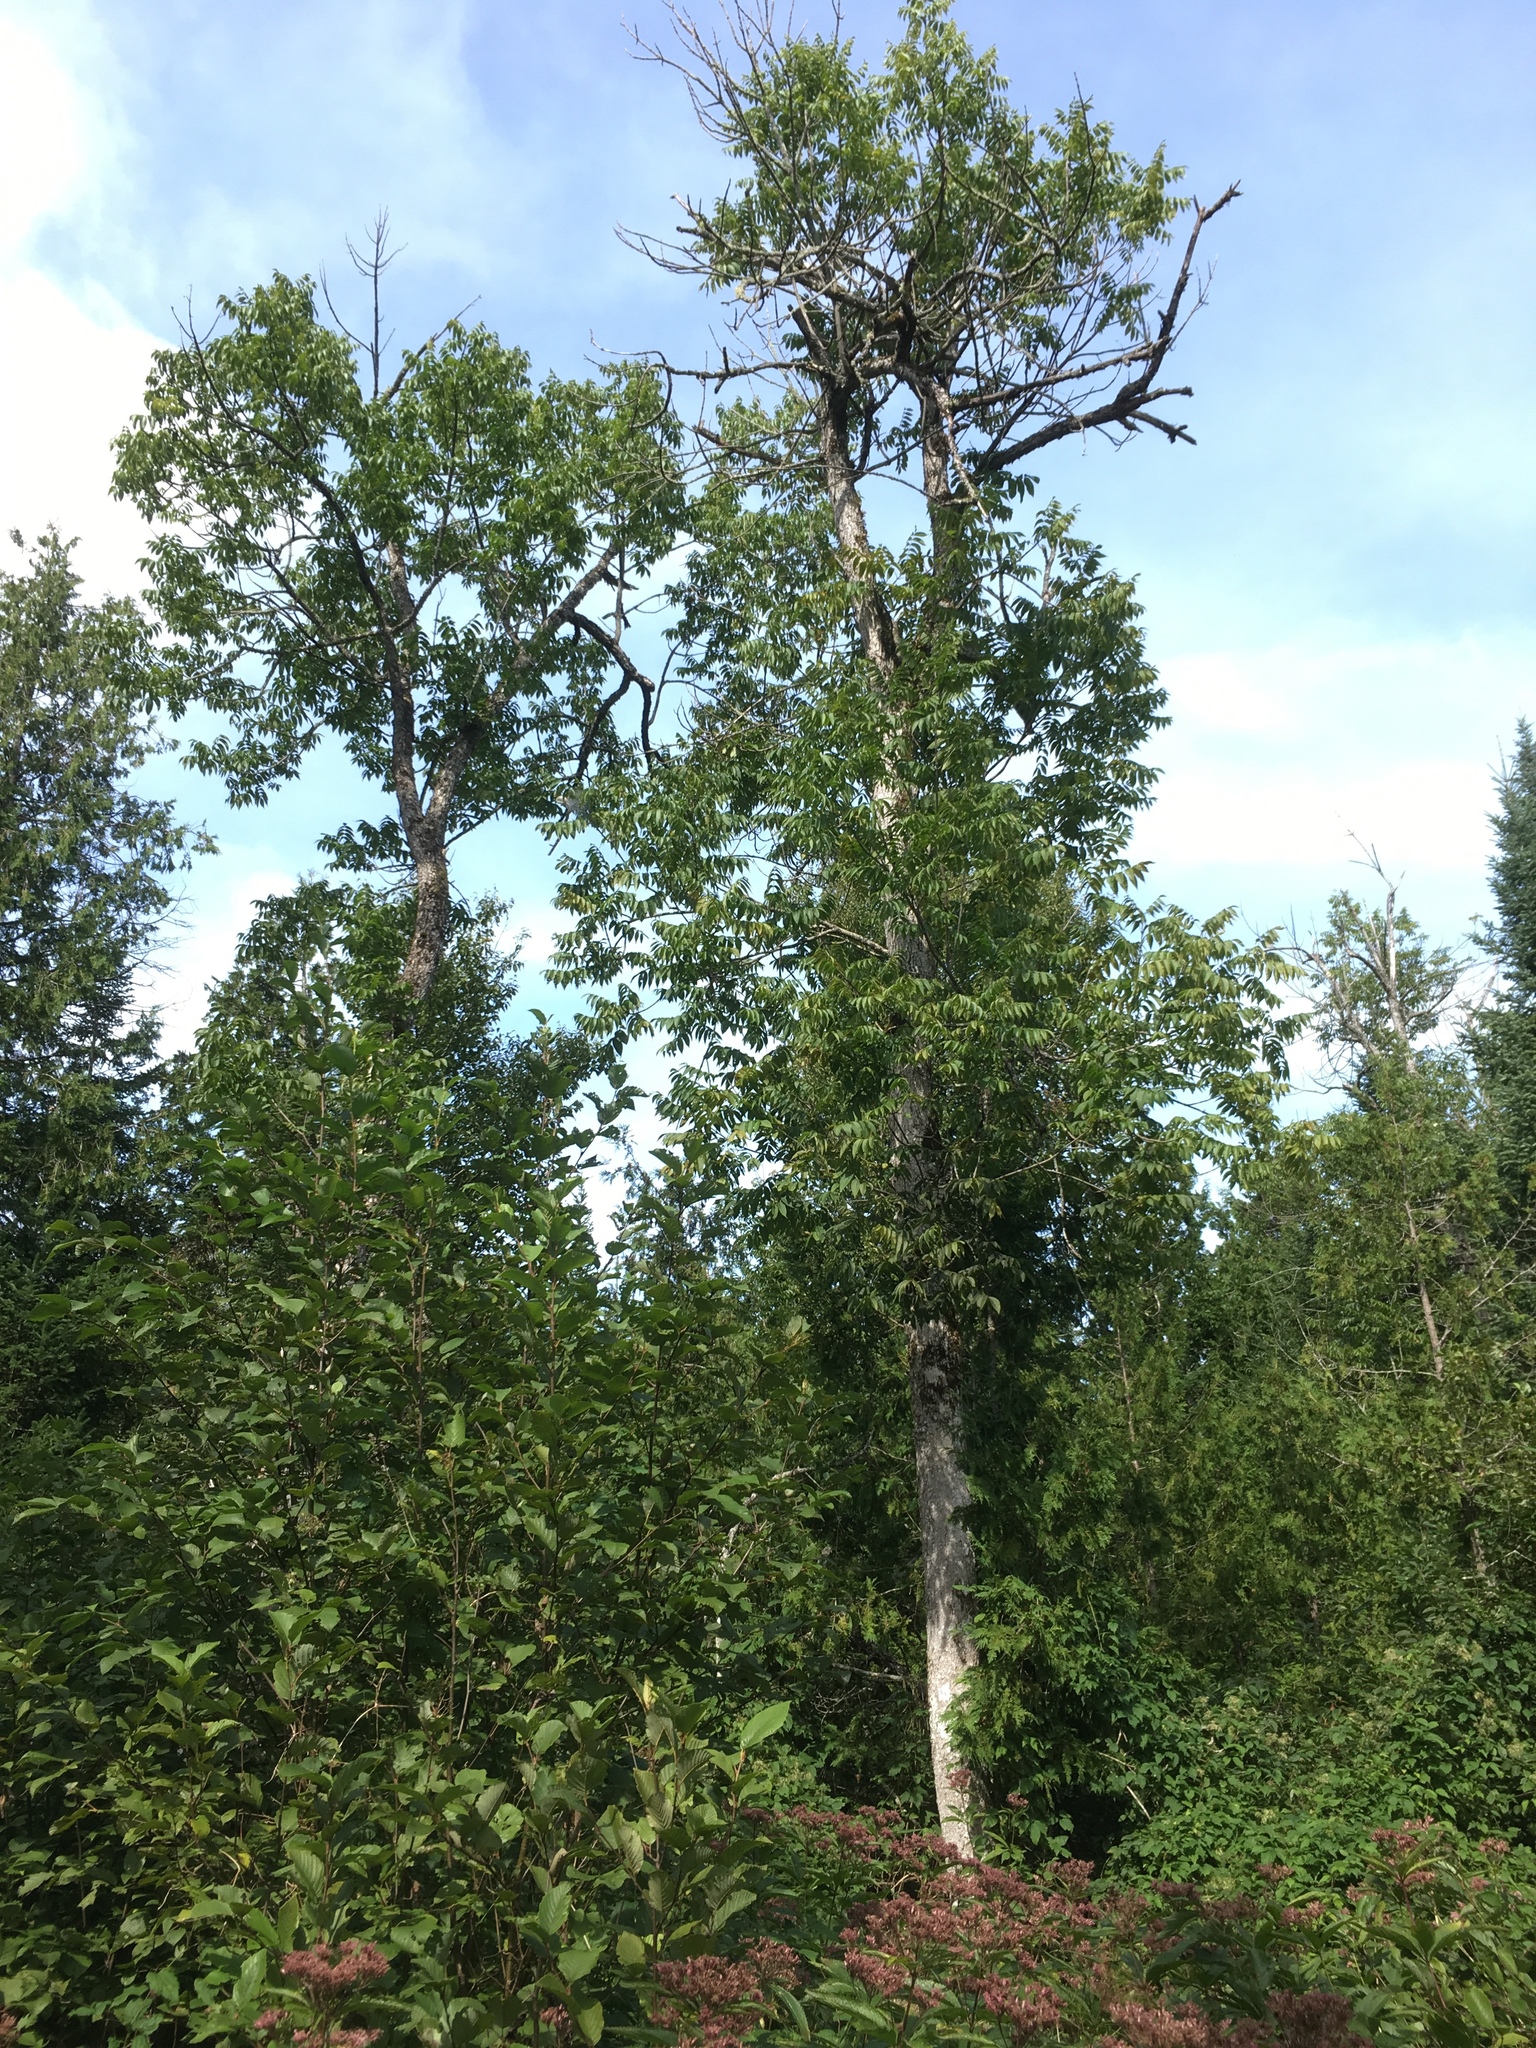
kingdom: Plantae
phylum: Tracheophyta
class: Magnoliopsida
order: Lamiales
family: Oleaceae
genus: Fraxinus
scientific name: Fraxinus nigra
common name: Black ash
